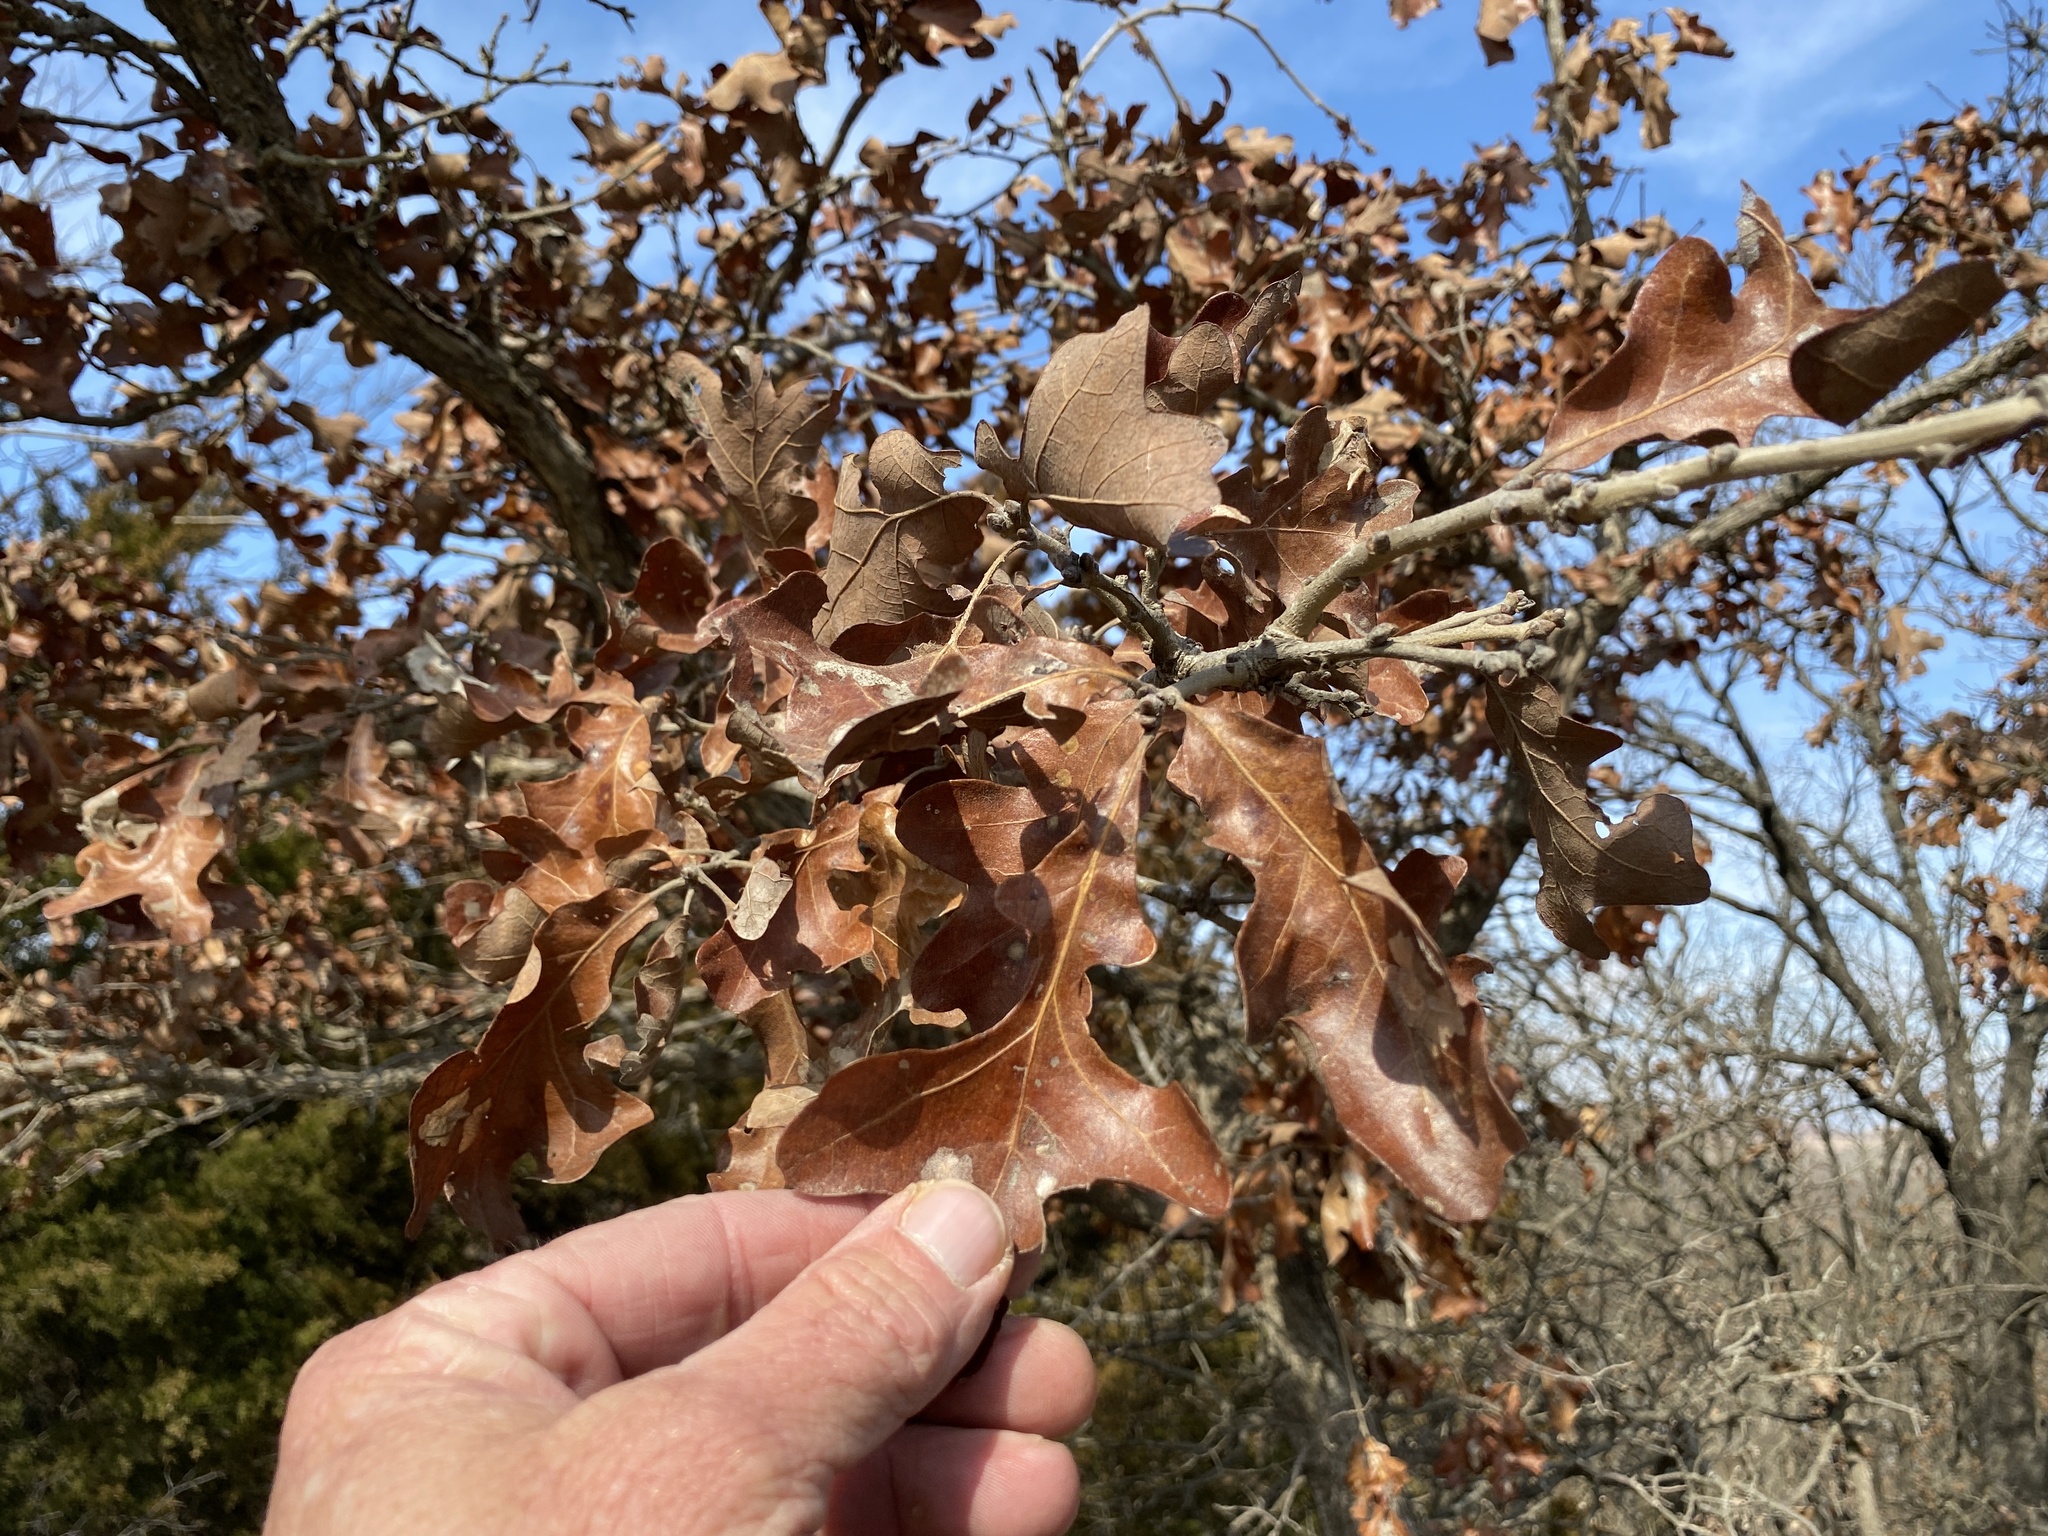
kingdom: Plantae
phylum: Tracheophyta
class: Magnoliopsida
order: Fagales
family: Fagaceae
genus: Quercus
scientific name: Quercus stellata
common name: Post oak
